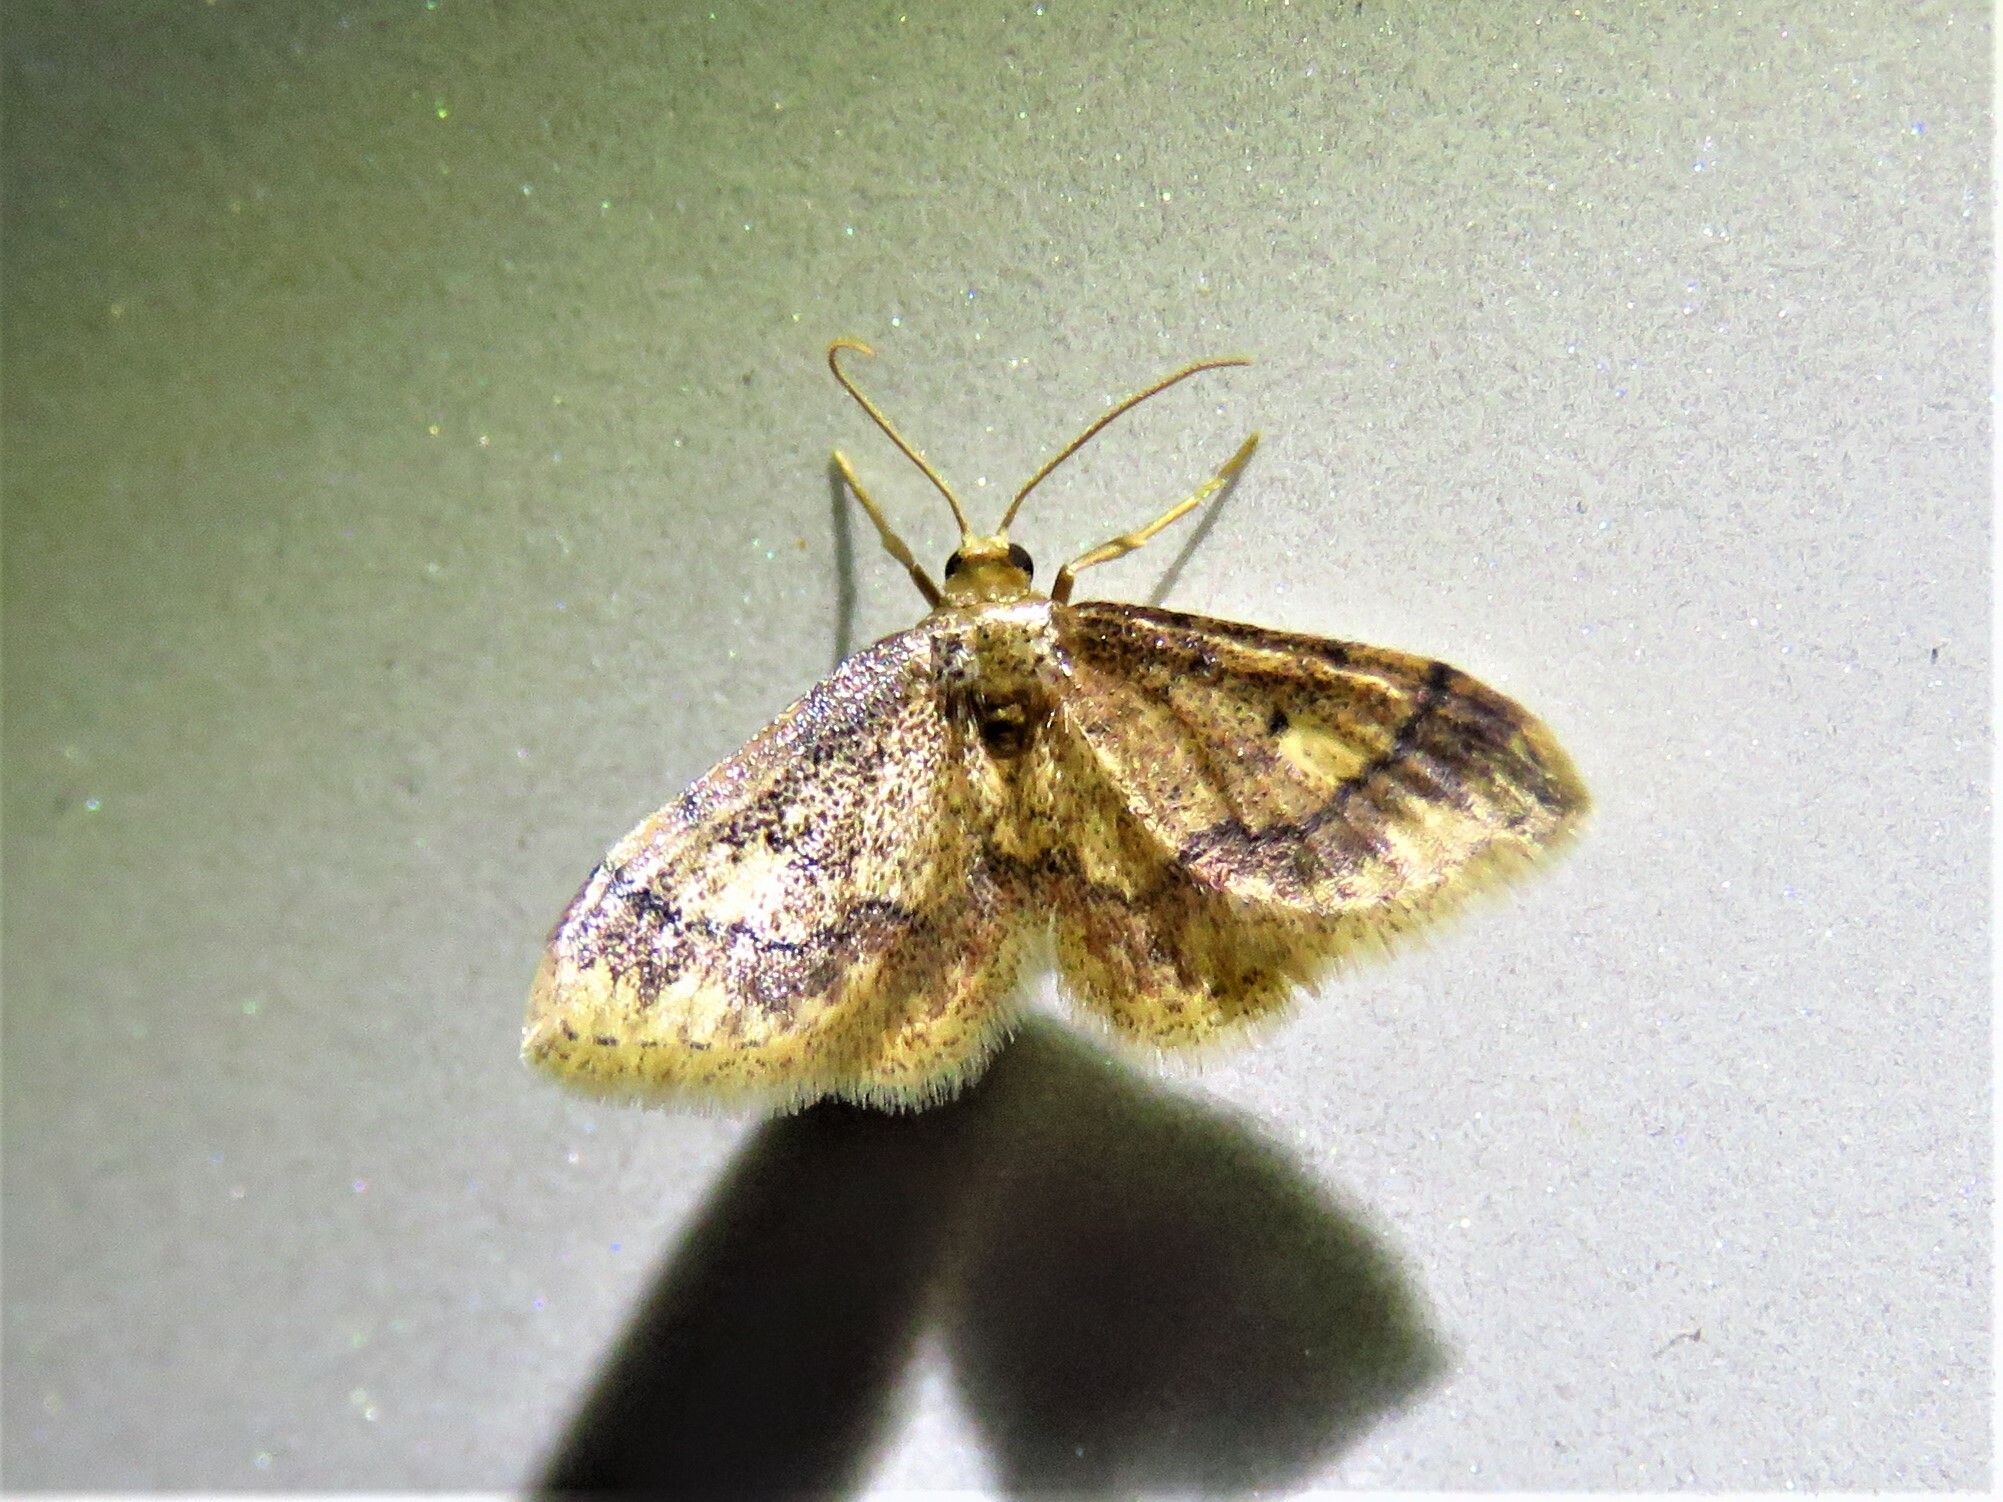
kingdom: Animalia
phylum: Arthropoda
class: Insecta
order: Lepidoptera
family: Geometridae
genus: Idaea
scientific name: Idaea celtima
